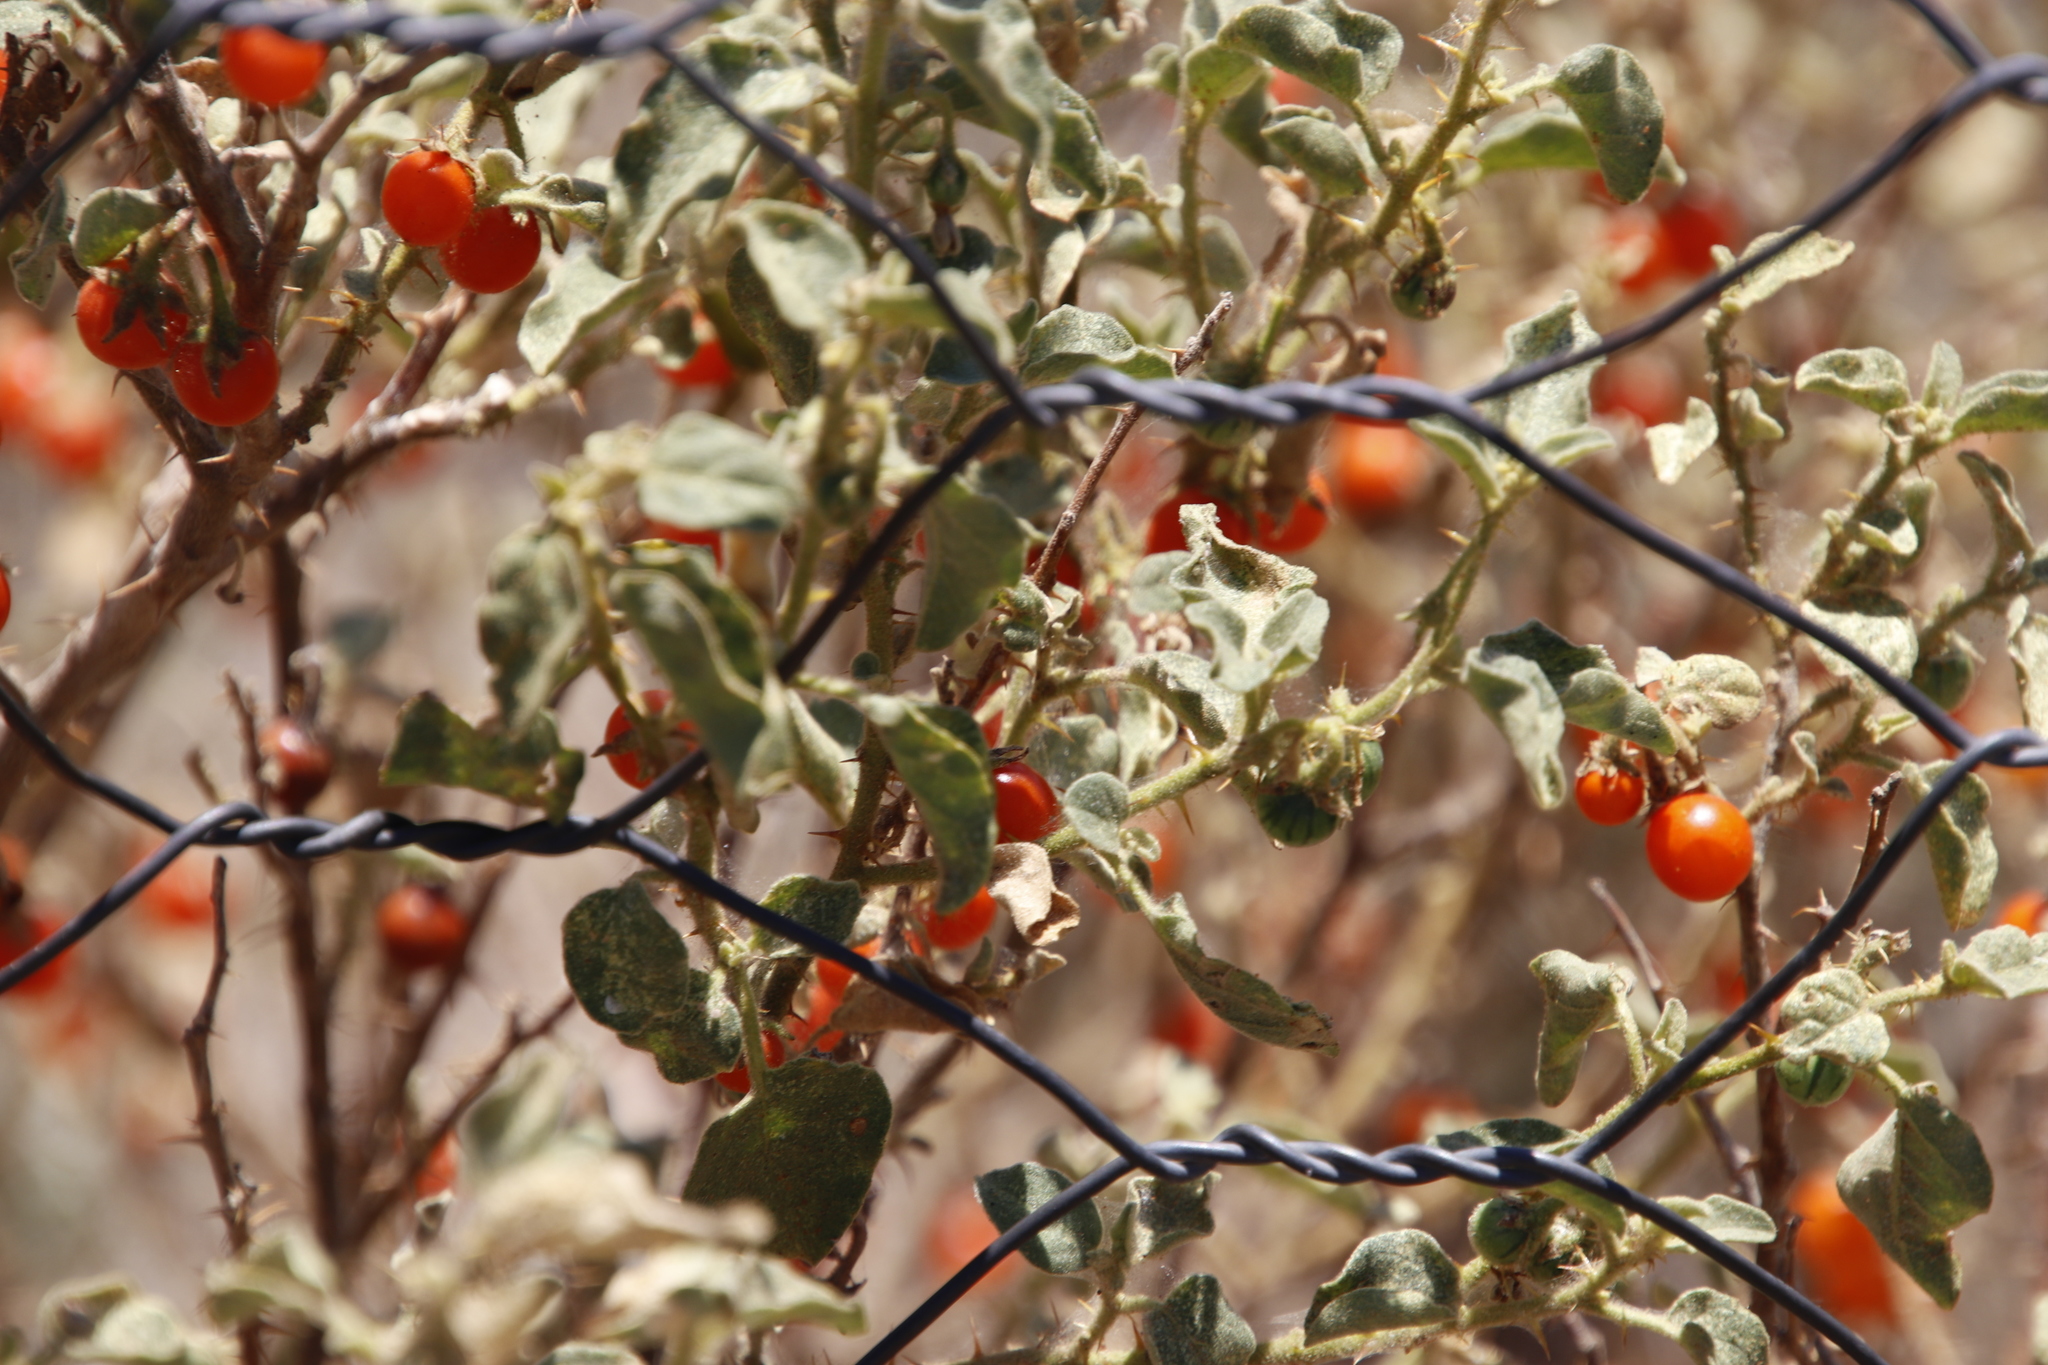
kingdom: Plantae
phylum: Tracheophyta
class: Magnoliopsida
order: Solanales
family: Solanaceae
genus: Solanum
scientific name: Solanum tomentosum
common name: Wild aubergine
